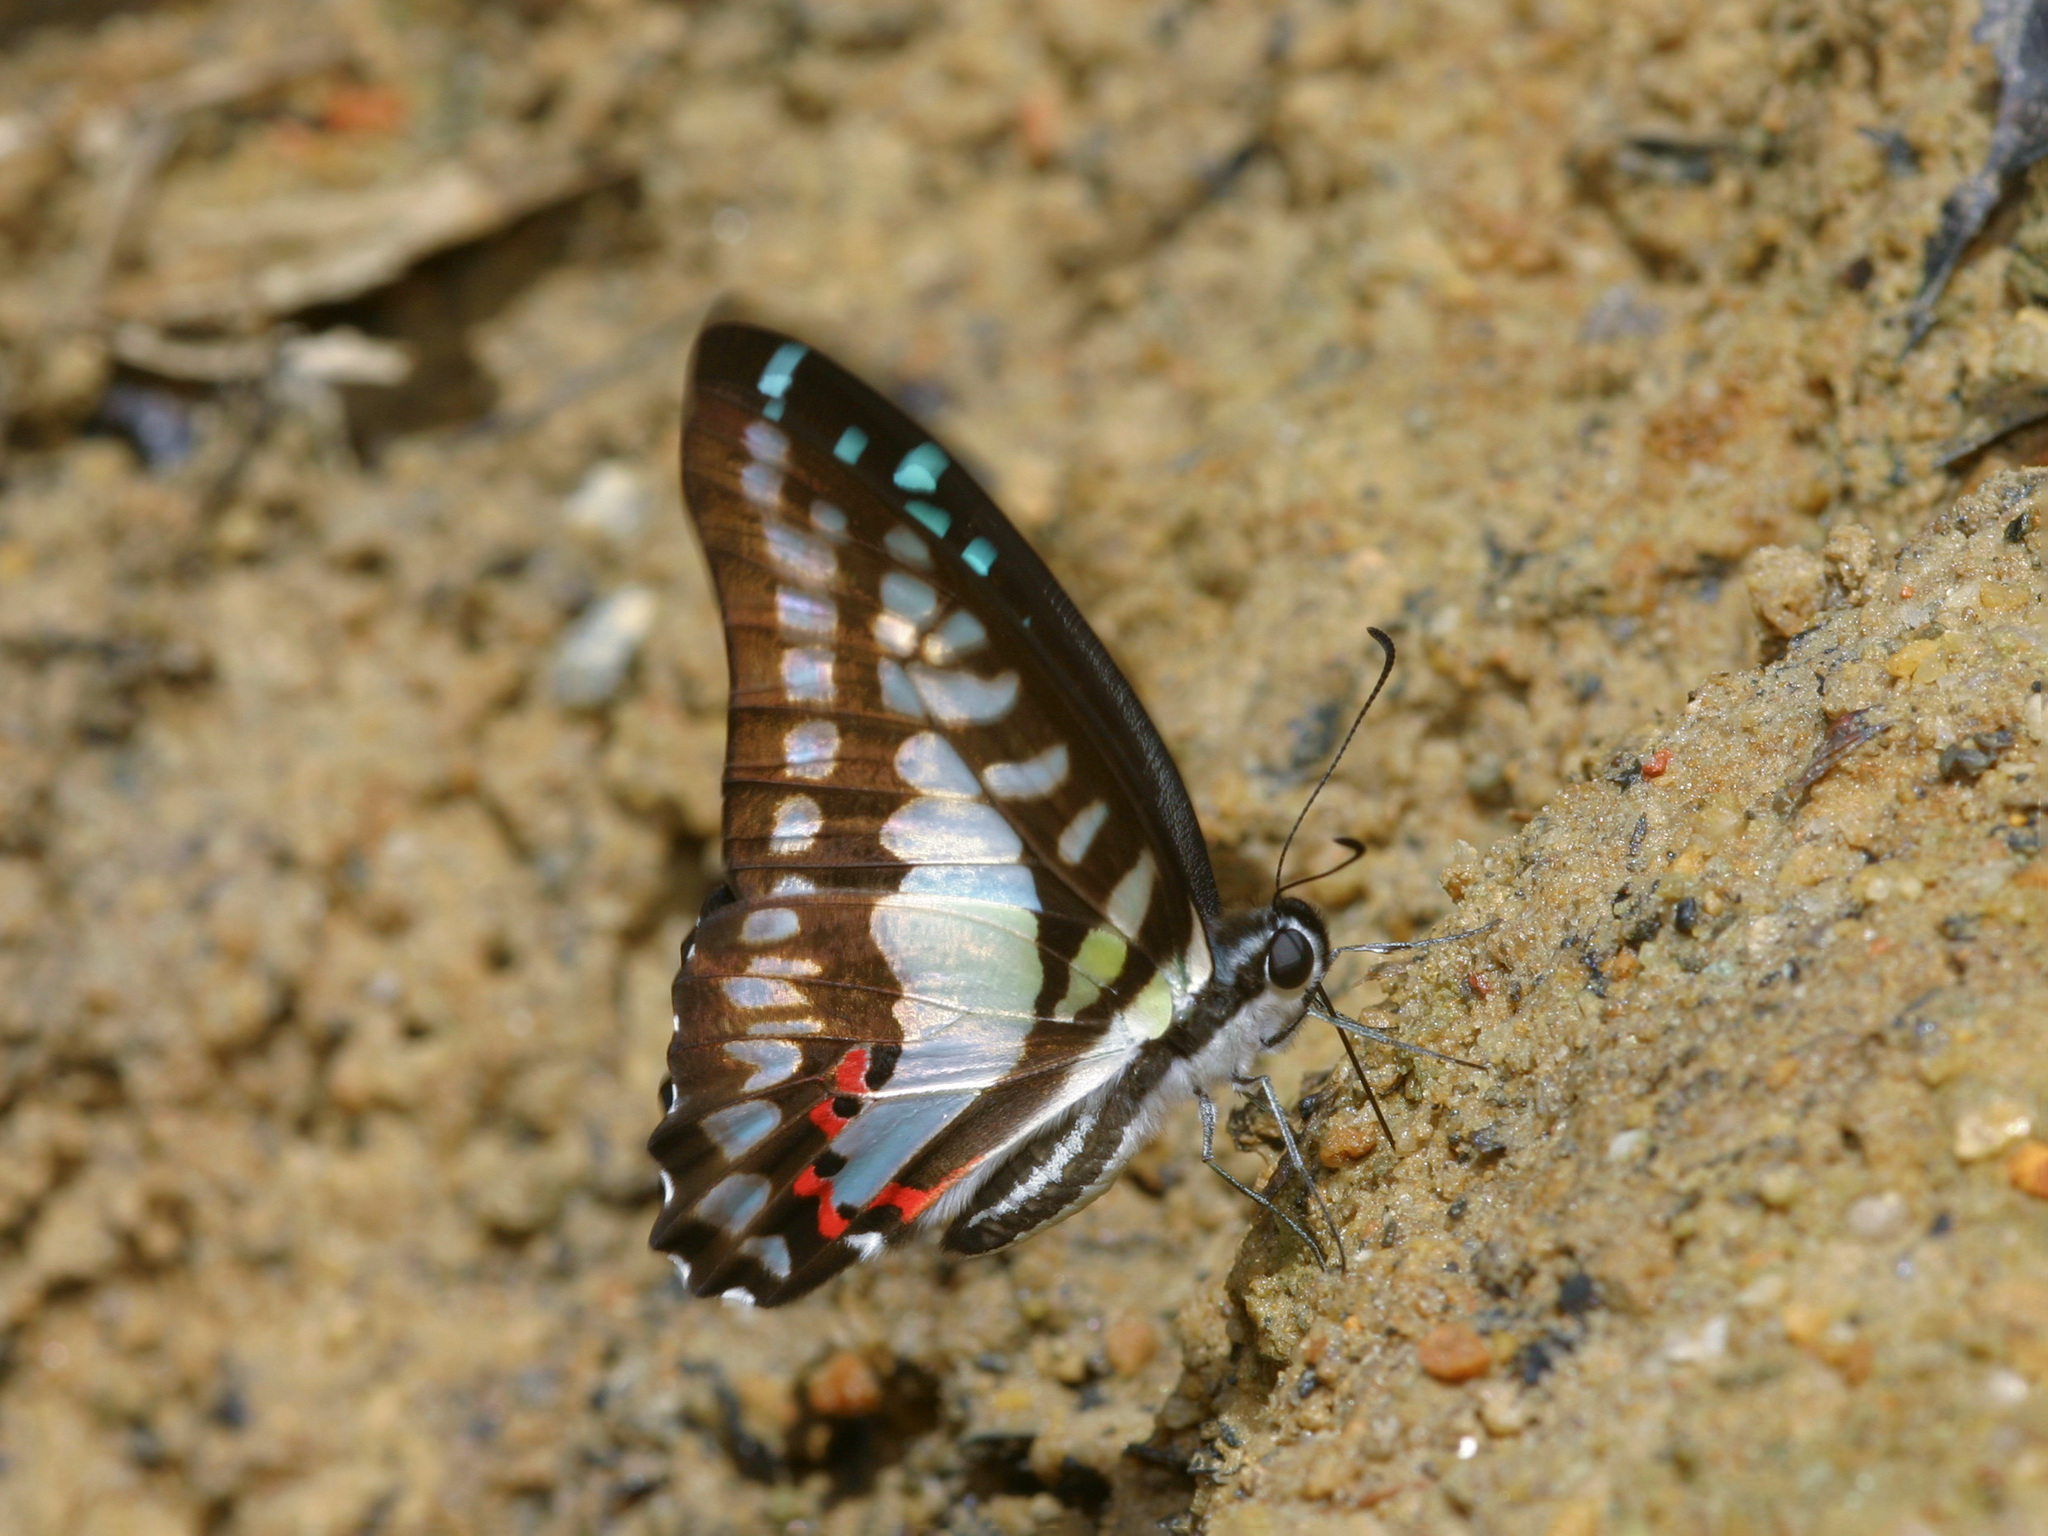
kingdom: Animalia
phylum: Arthropoda
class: Insecta
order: Lepidoptera
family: Papilionidae
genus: Graphium
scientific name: Graphium evemon
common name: Lesser jay
